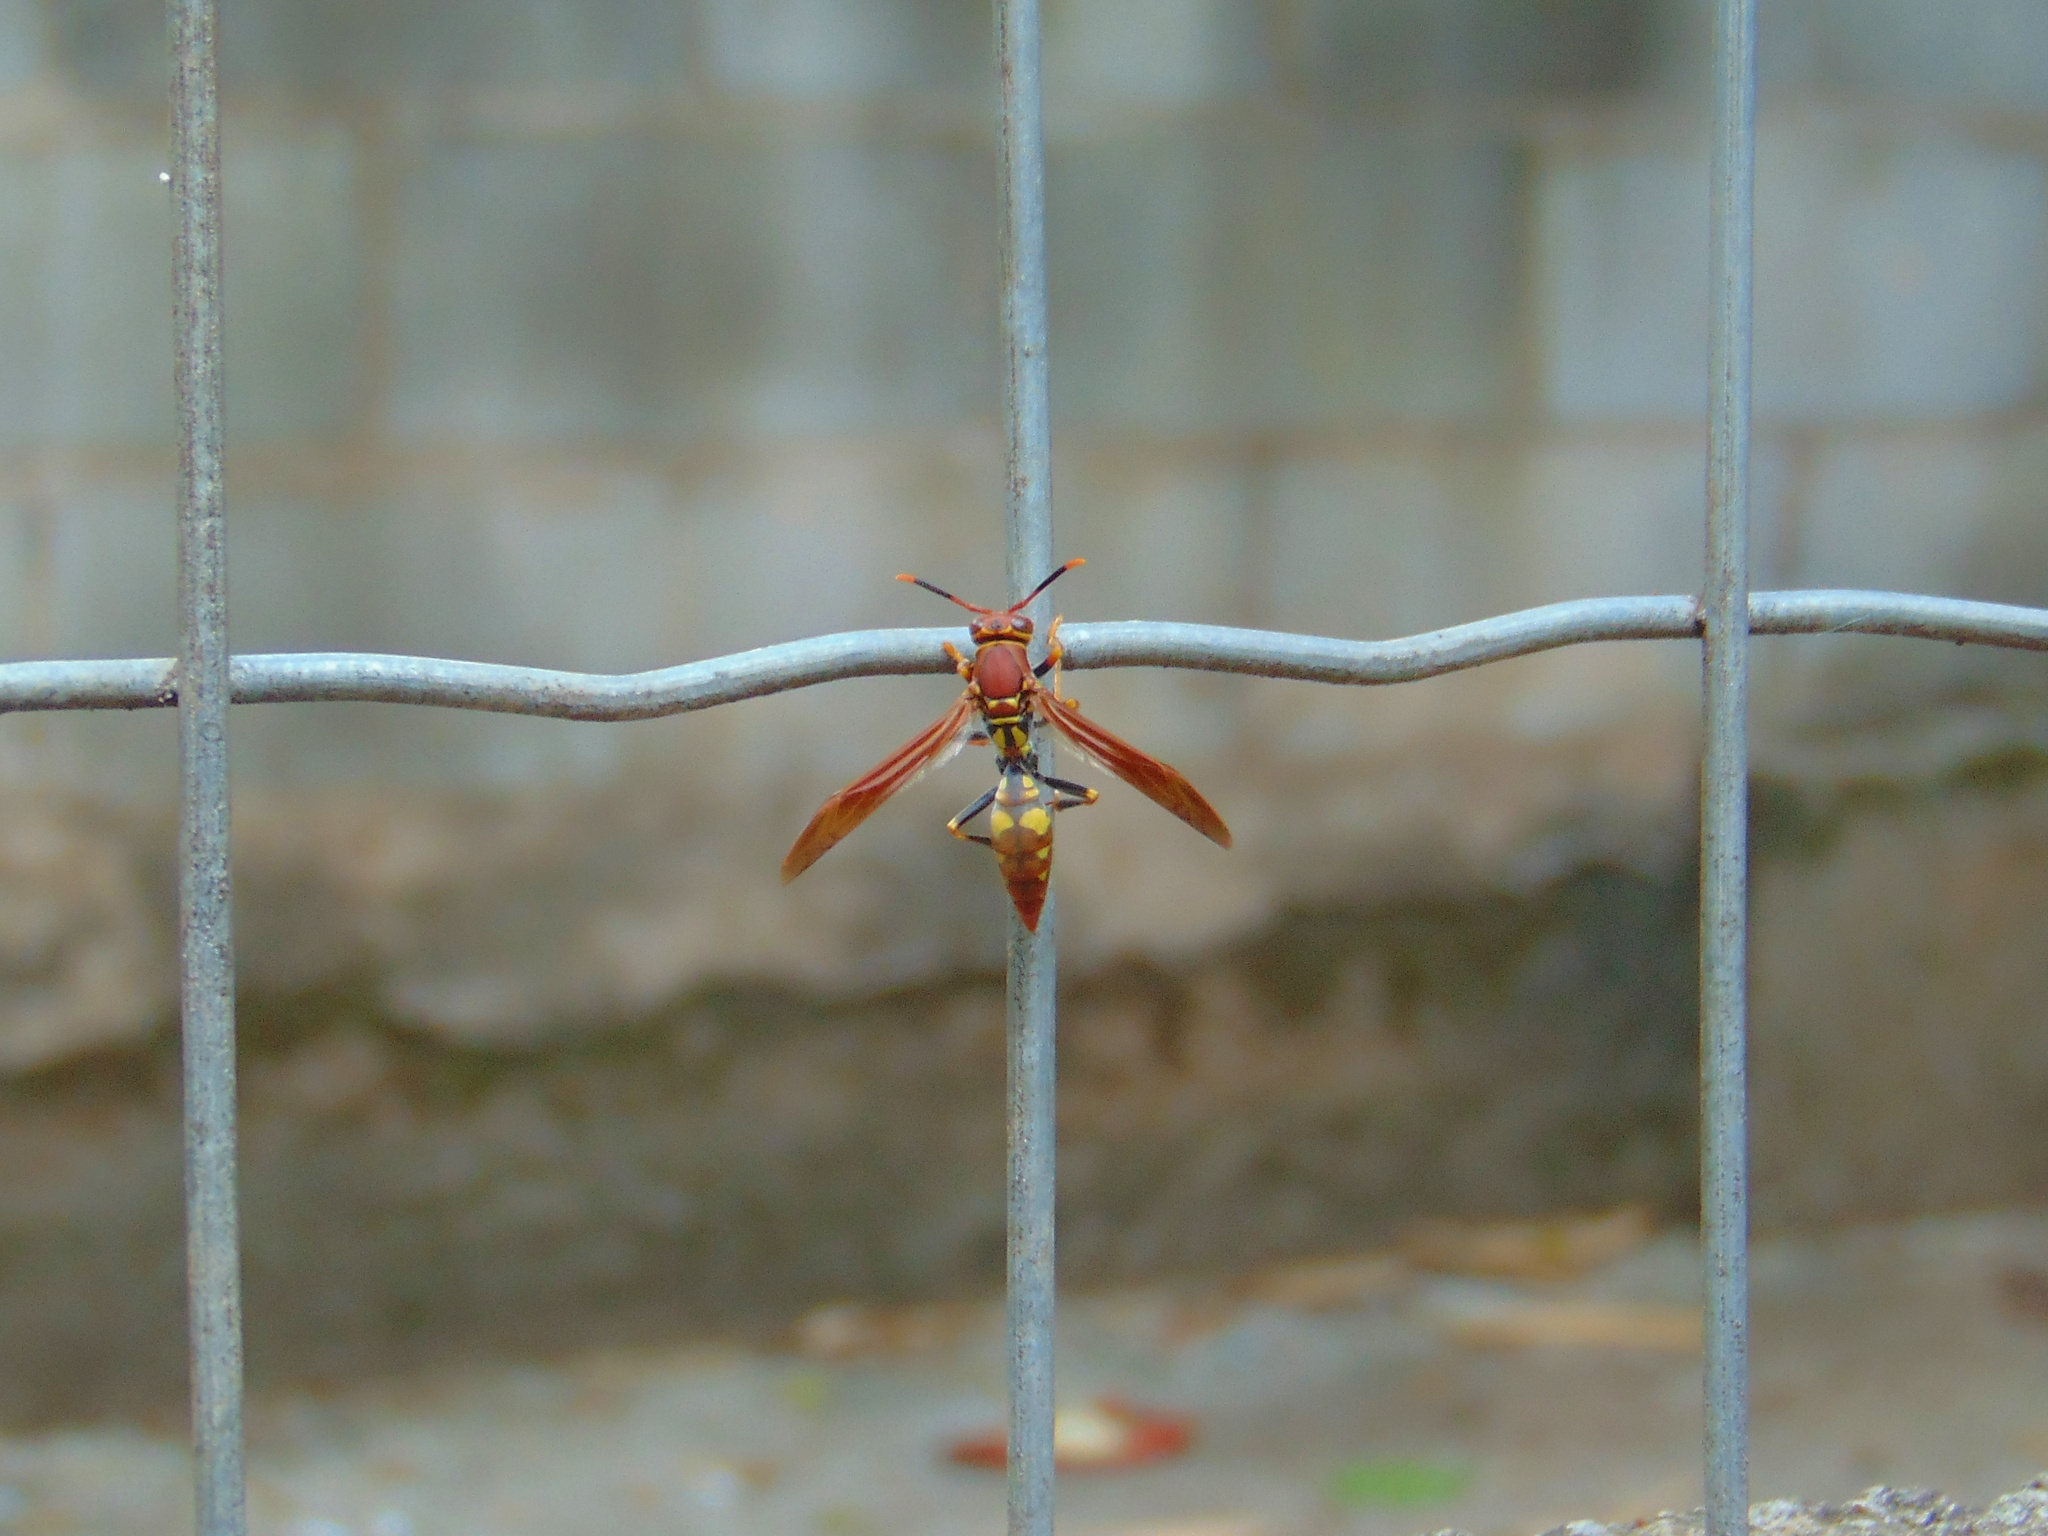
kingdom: Animalia
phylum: Arthropoda
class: Insecta
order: Hymenoptera
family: Eumenidae
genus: Polistes
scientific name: Polistes versicolor
